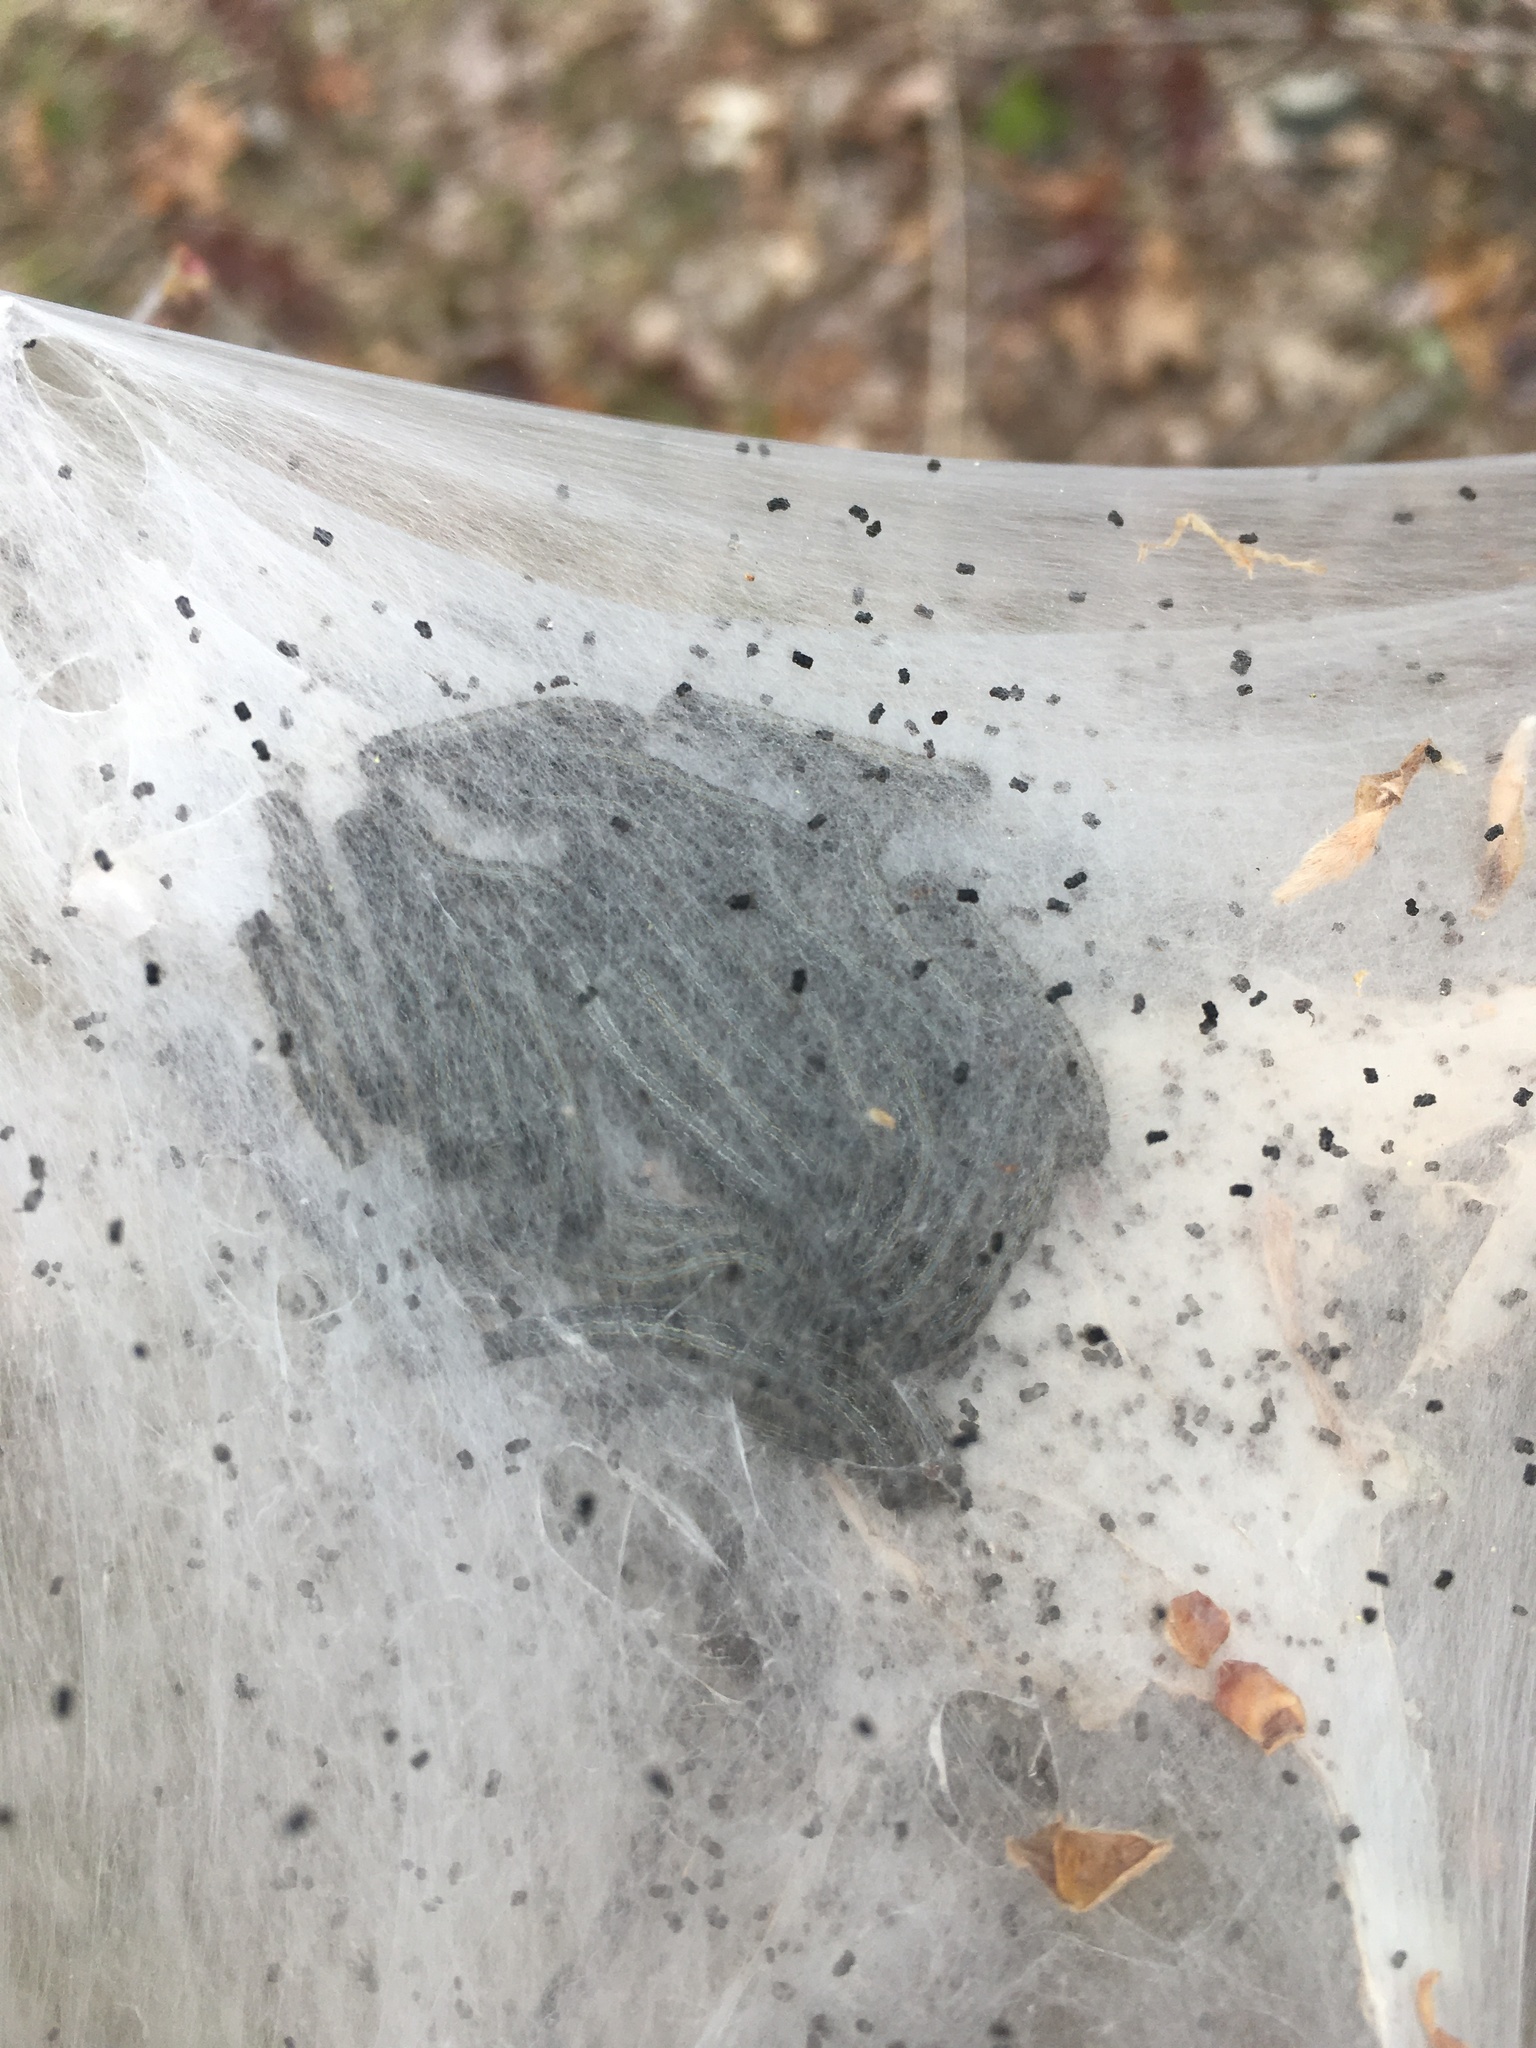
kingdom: Animalia
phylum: Arthropoda
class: Insecta
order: Lepidoptera
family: Lasiocampidae
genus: Malacosoma
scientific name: Malacosoma americana
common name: Eastern tent caterpillar moth
